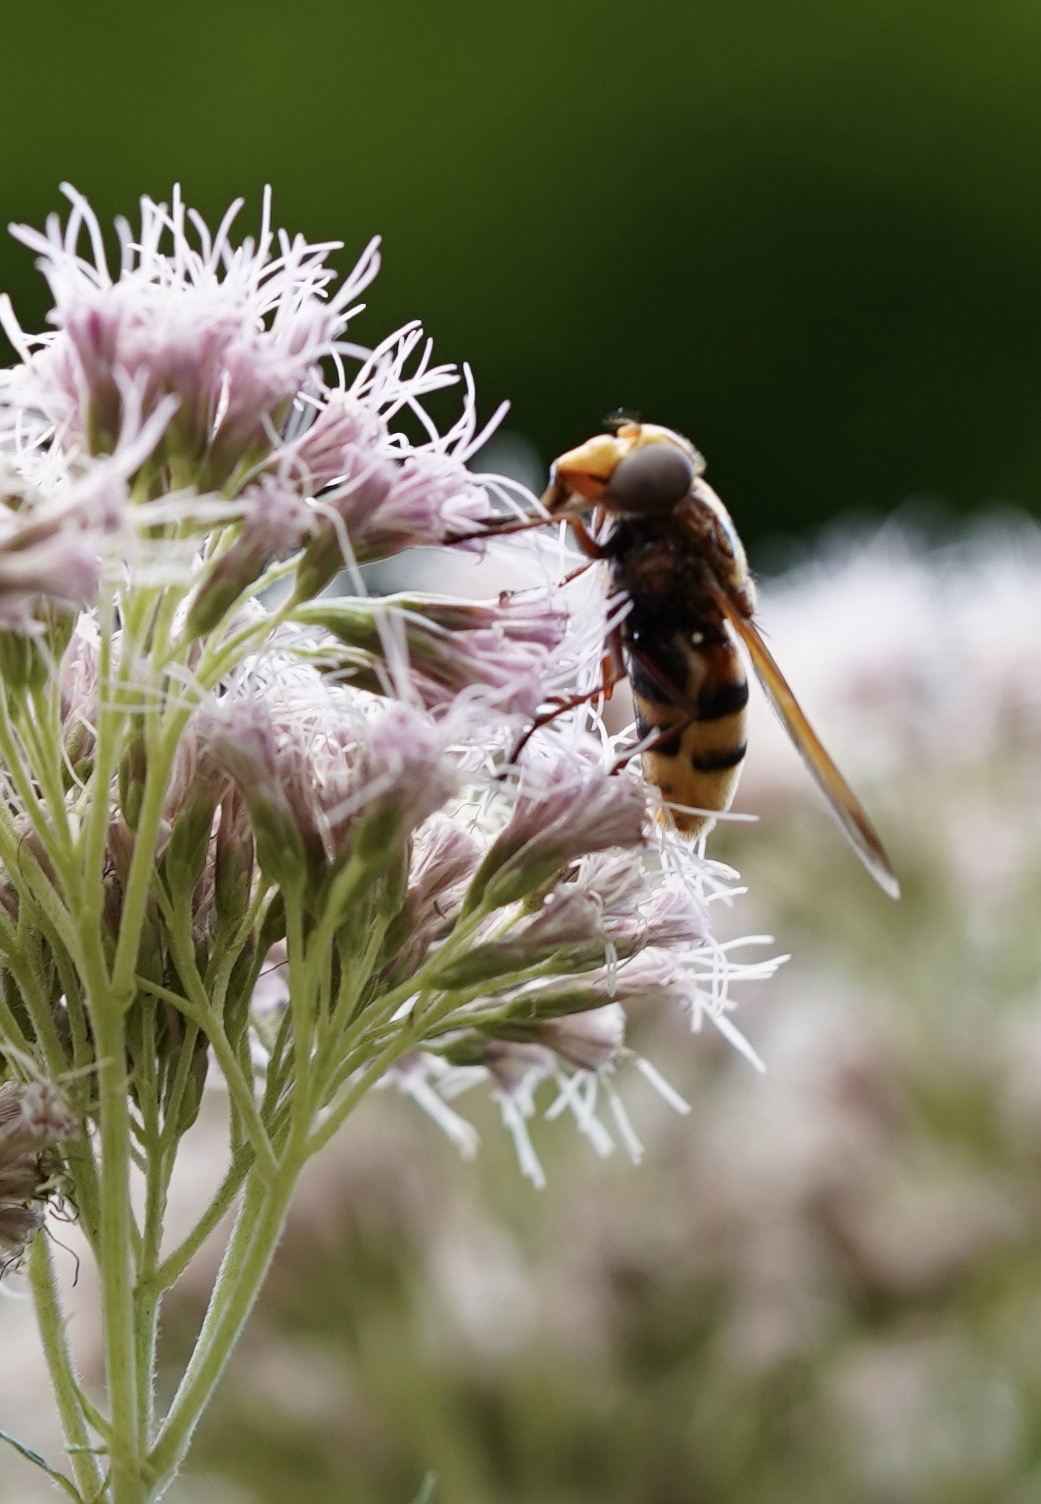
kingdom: Animalia
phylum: Arthropoda
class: Insecta
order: Diptera
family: Syrphidae
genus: Volucella
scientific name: Volucella zonaria
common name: Hornet hoverfly
